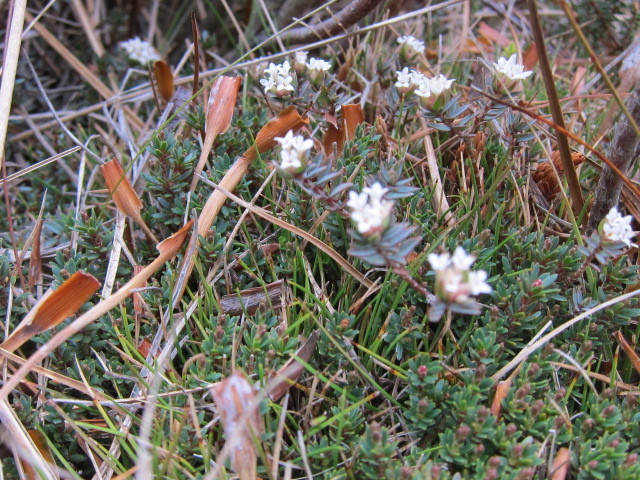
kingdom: Plantae
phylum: Tracheophyta
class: Magnoliopsida
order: Malvales
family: Thymelaeaceae
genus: Pimelea
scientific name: Pimelea oreophila
